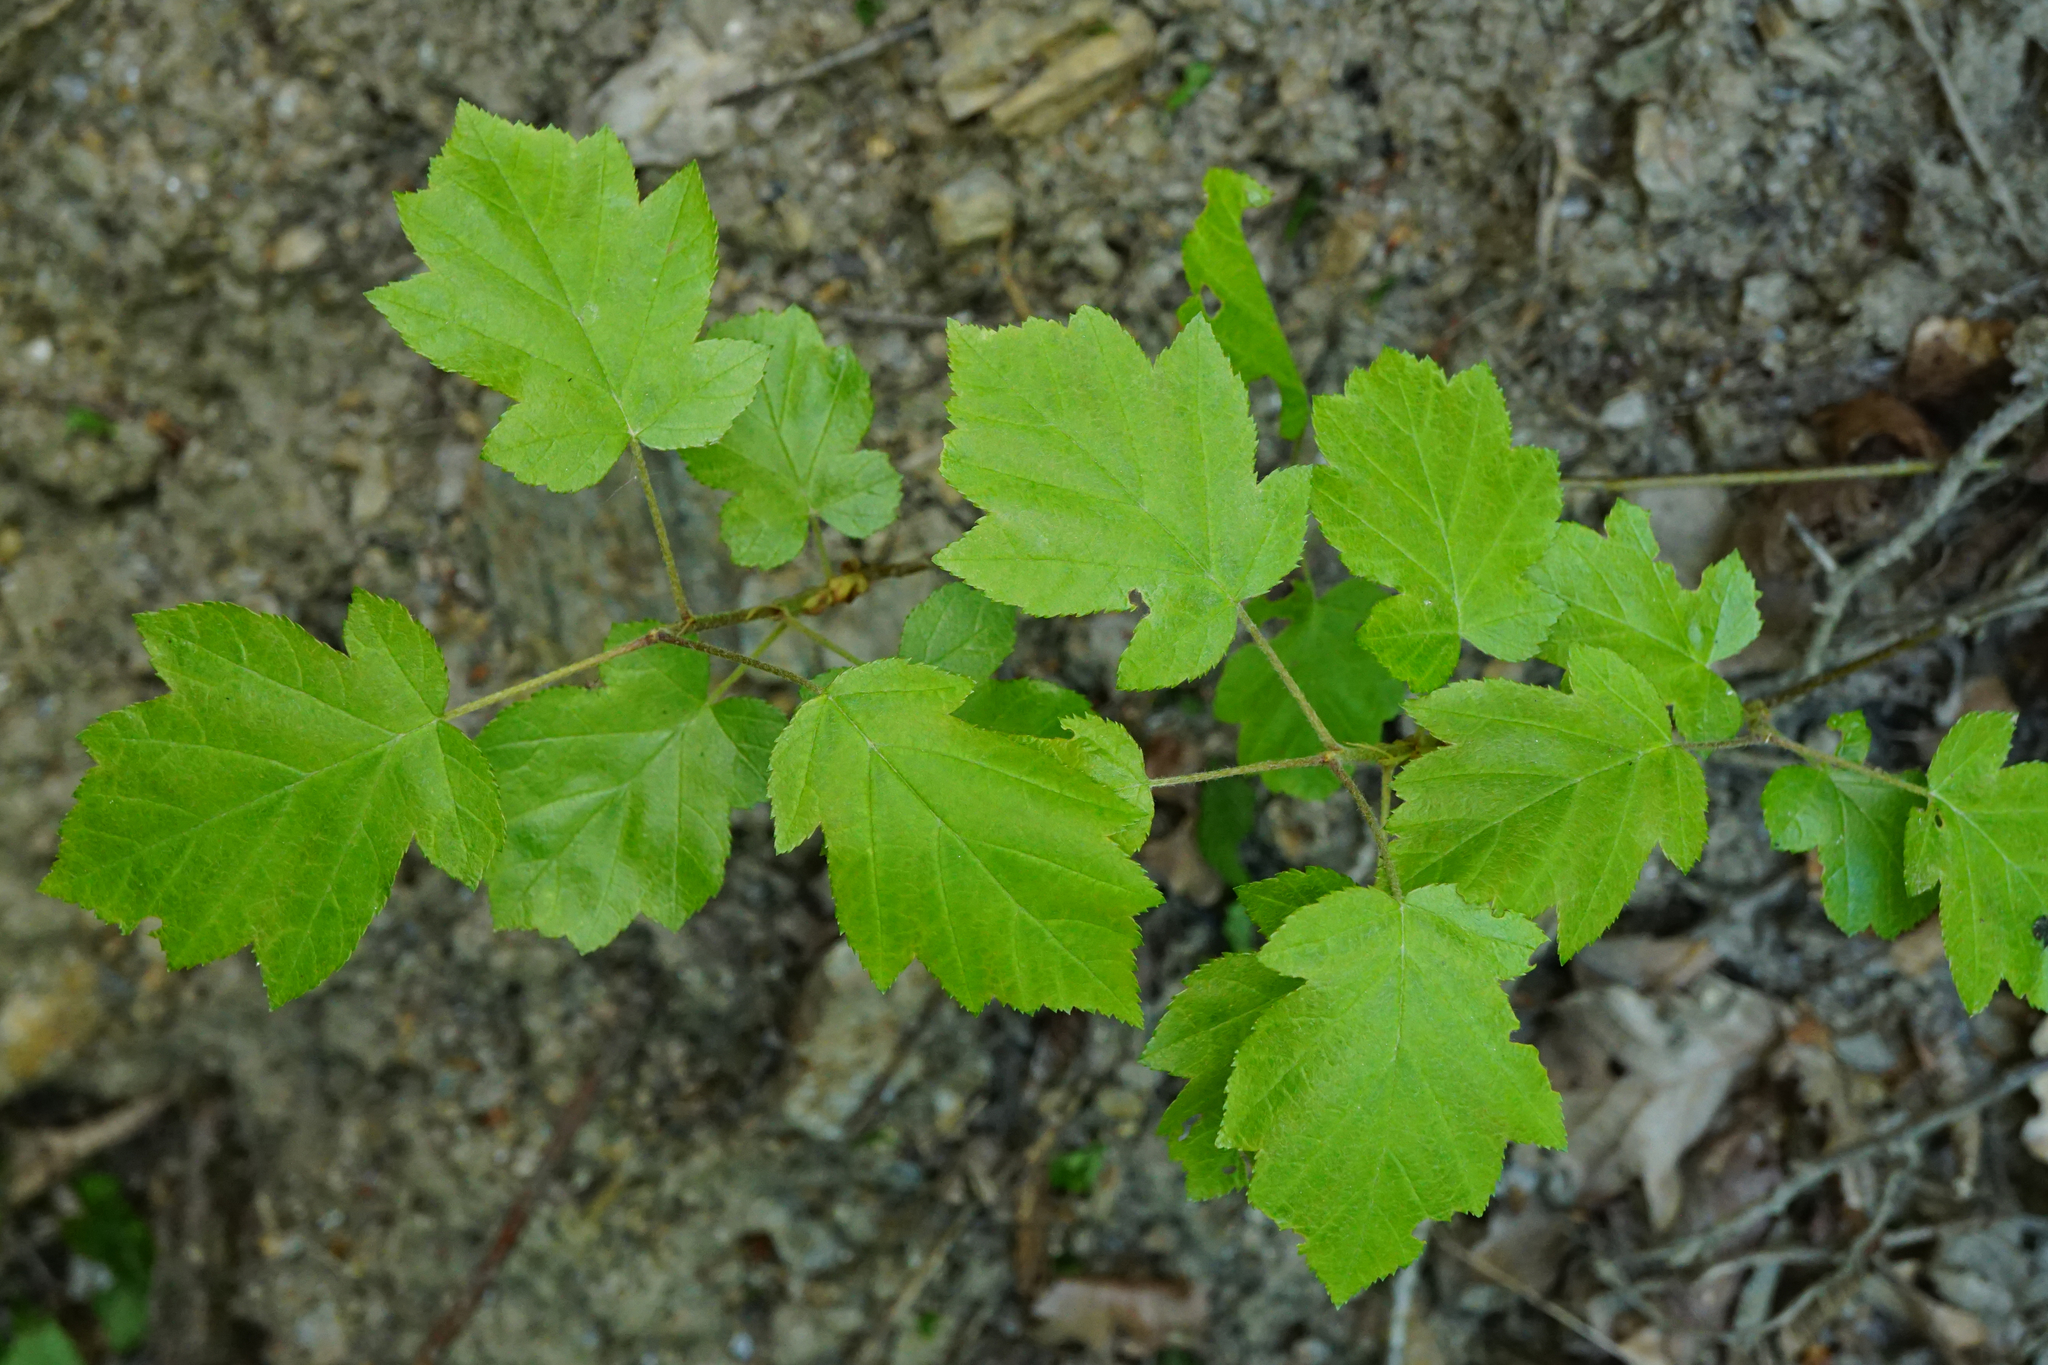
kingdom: Plantae
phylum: Tracheophyta
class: Magnoliopsida
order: Rosales
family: Rosaceae
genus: Torminalis
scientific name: Torminalis glaberrima
